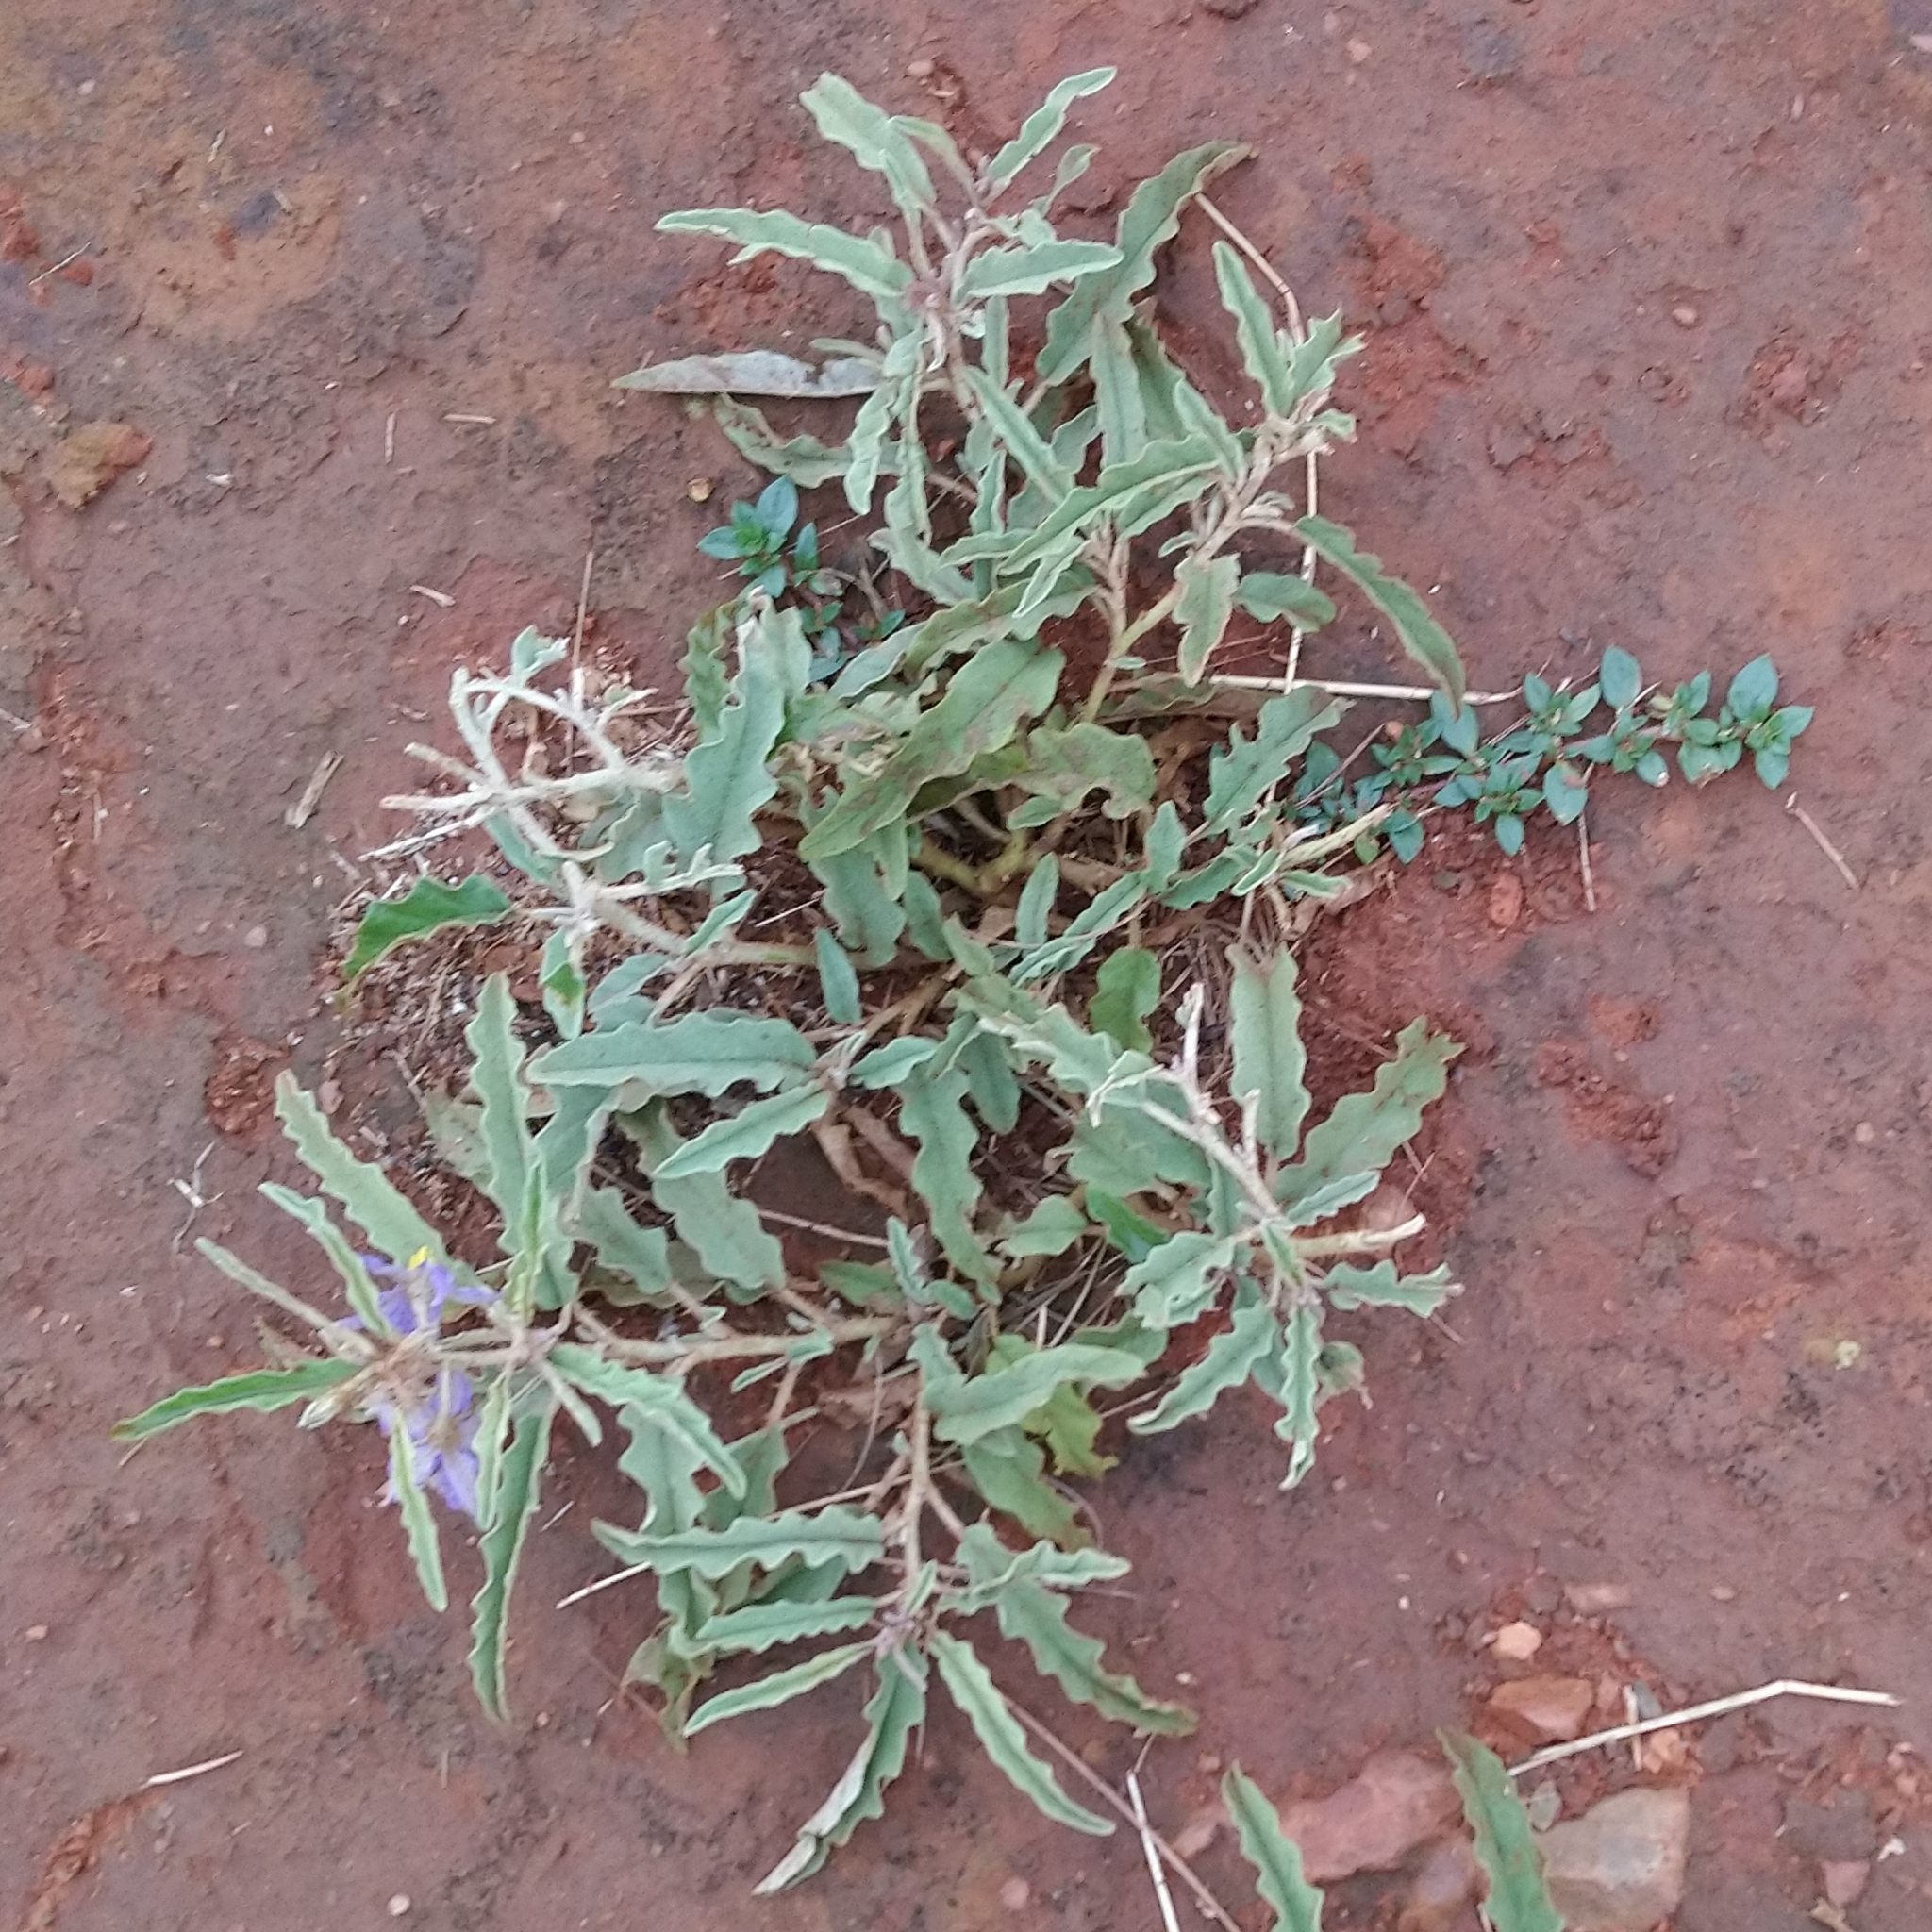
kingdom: Plantae
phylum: Tracheophyta
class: Magnoliopsida
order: Solanales
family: Solanaceae
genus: Solanum
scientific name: Solanum elaeagnifolium
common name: Silverleaf nightshade
